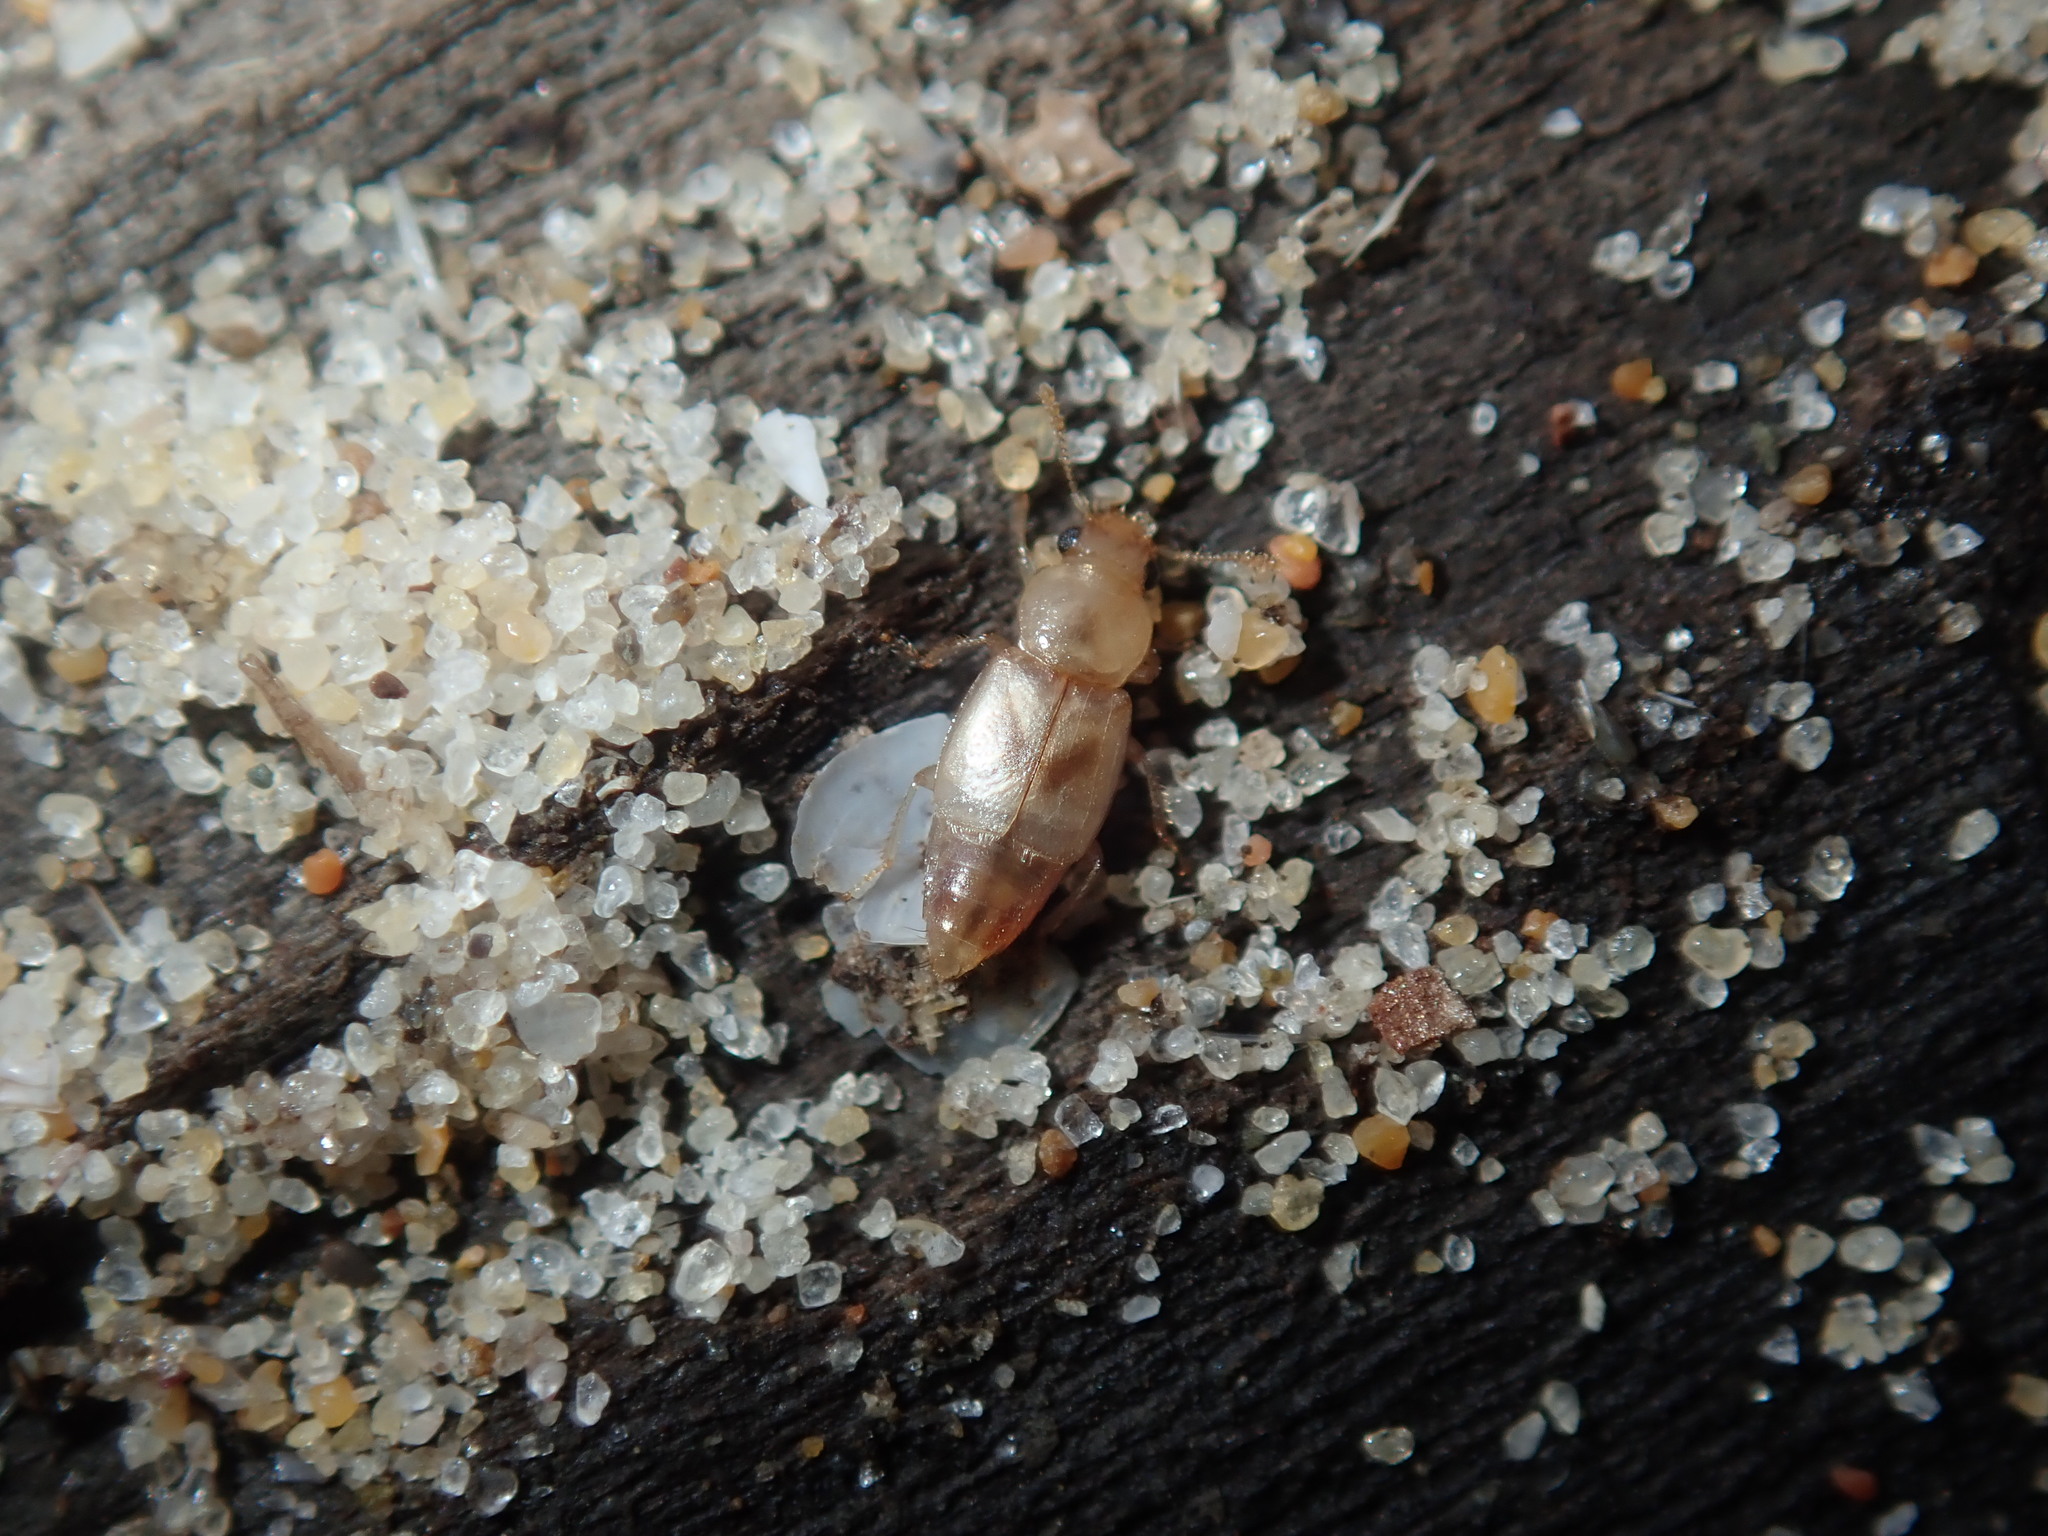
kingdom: Animalia
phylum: Arthropoda
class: Insecta
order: Coleoptera
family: Staphylinidae
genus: Sartallus
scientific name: Sartallus signatus
